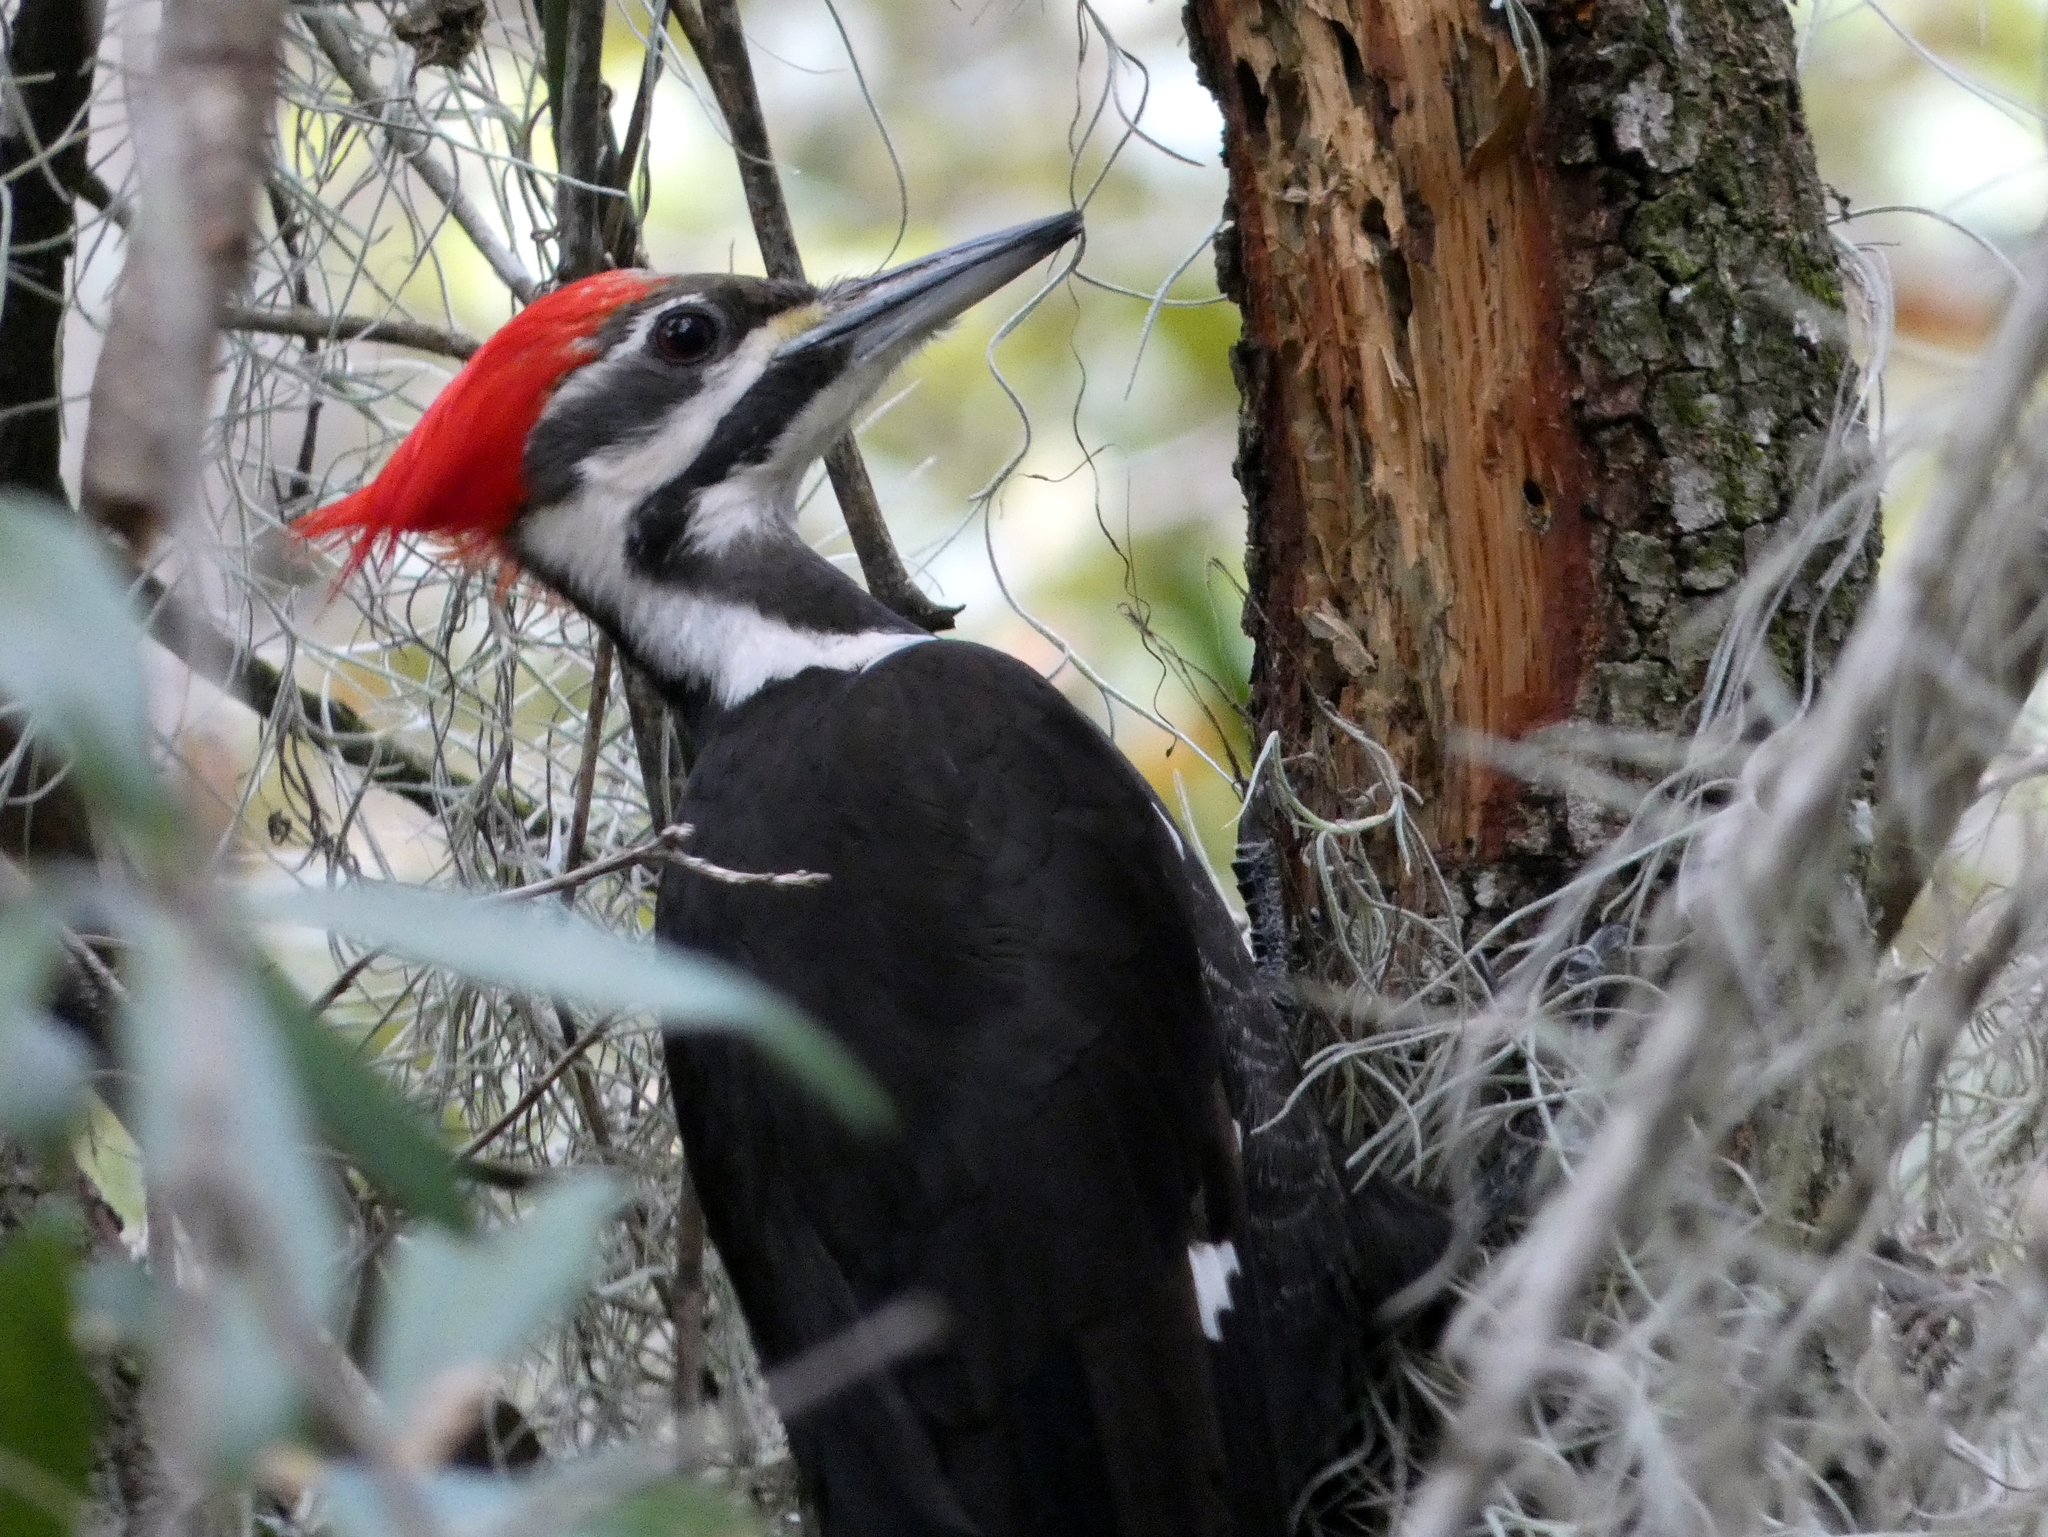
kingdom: Animalia
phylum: Chordata
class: Aves
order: Piciformes
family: Picidae
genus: Dryocopus
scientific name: Dryocopus pileatus
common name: Pileated woodpecker
